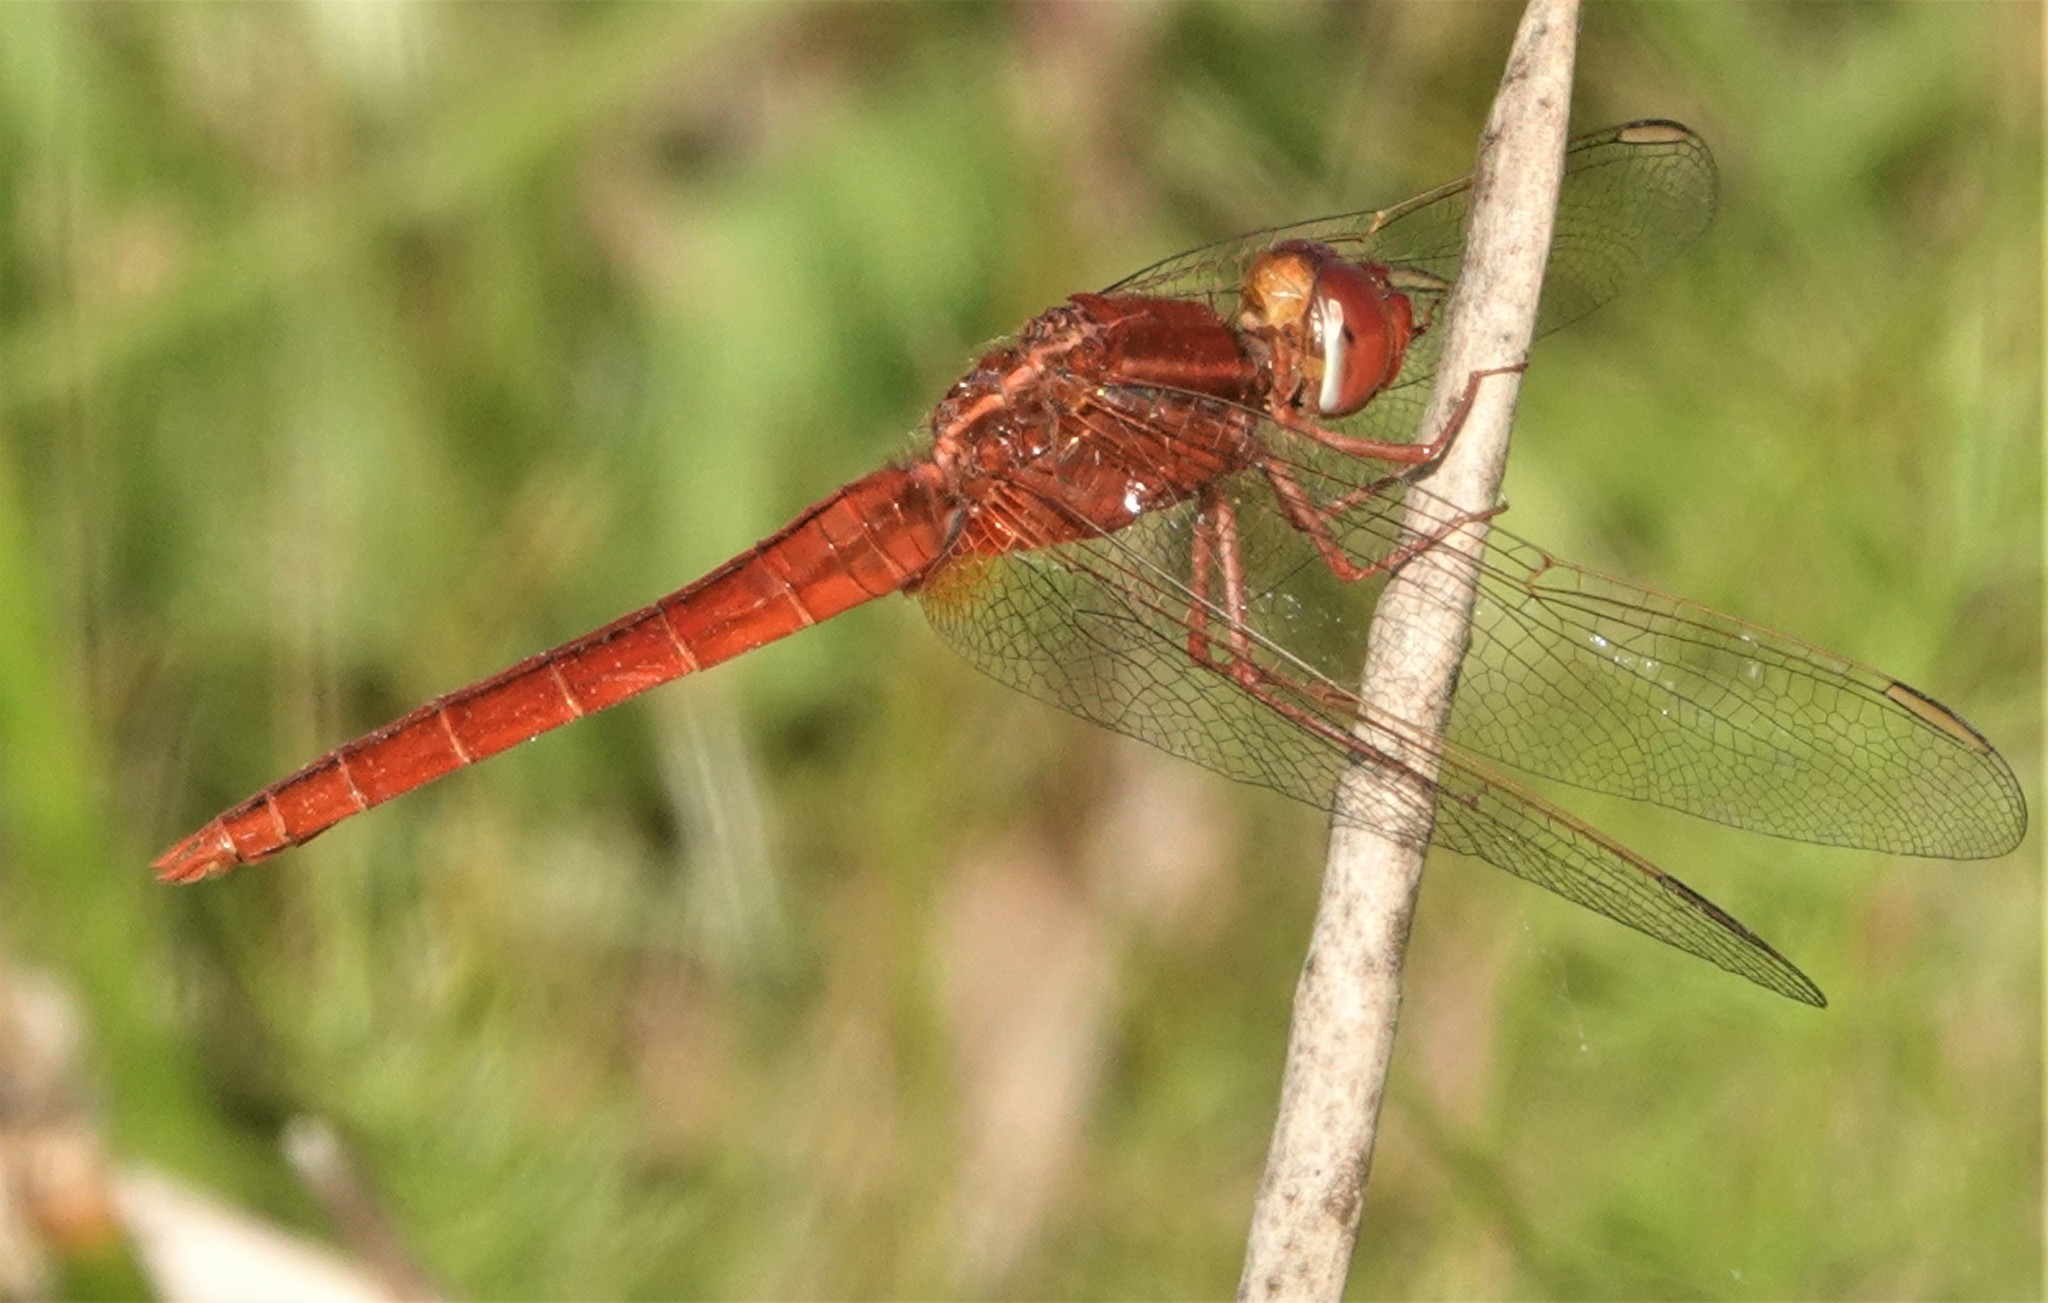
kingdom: Animalia
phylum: Arthropoda
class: Insecta
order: Odonata
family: Libellulidae
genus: Crocothemis
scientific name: Crocothemis servilia
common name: Scarlet skimmer
